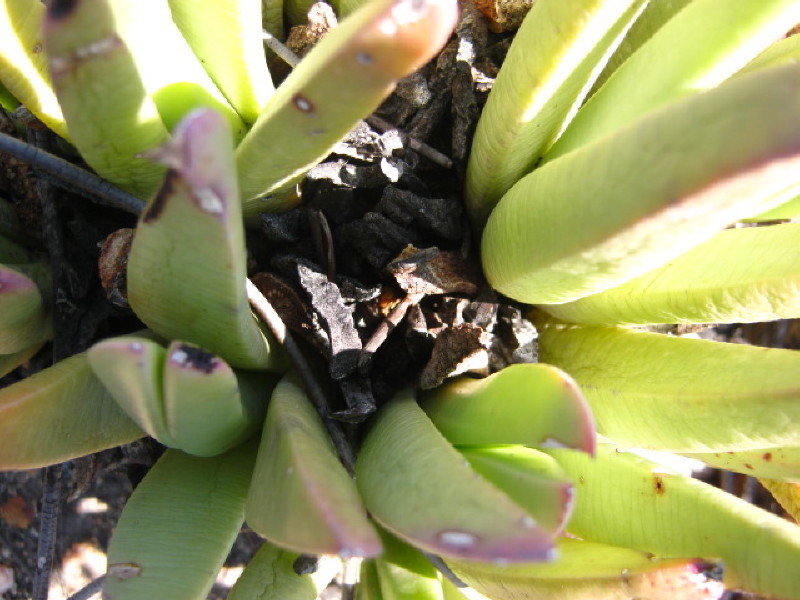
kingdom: Plantae
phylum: Tracheophyta
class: Magnoliopsida
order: Caryophyllales
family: Aizoaceae
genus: Machairophyllum
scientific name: Machairophyllum albidum
